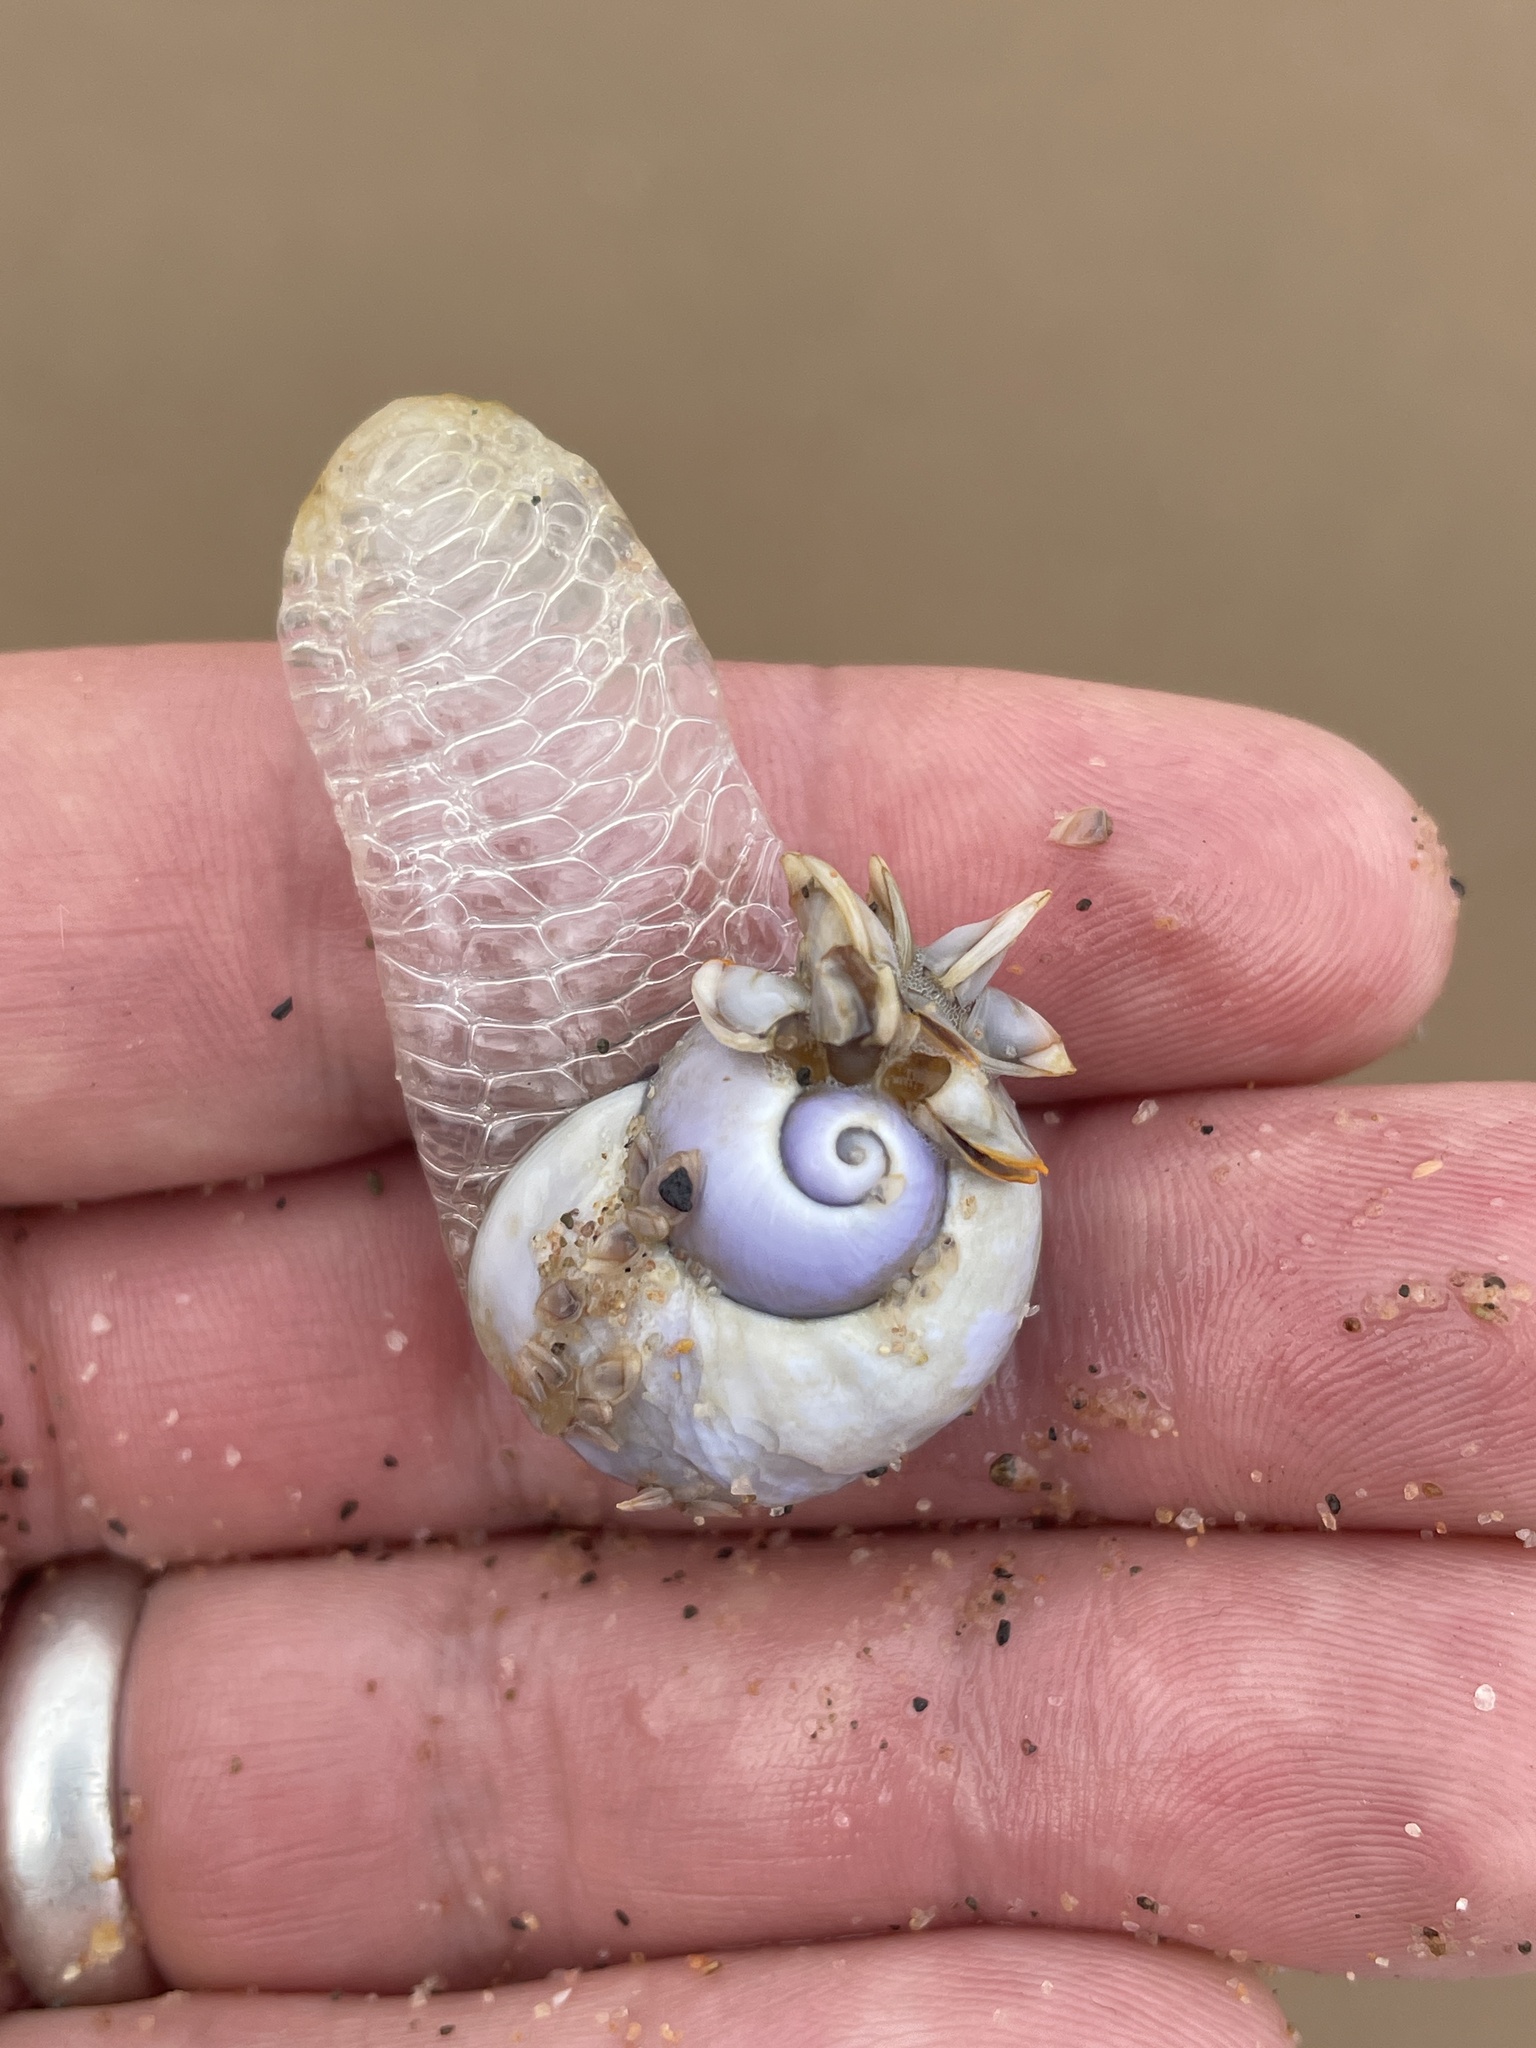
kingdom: Animalia
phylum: Mollusca
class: Gastropoda
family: Epitoniidae
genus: Janthina
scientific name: Janthina globosa
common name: Elongate janthina
